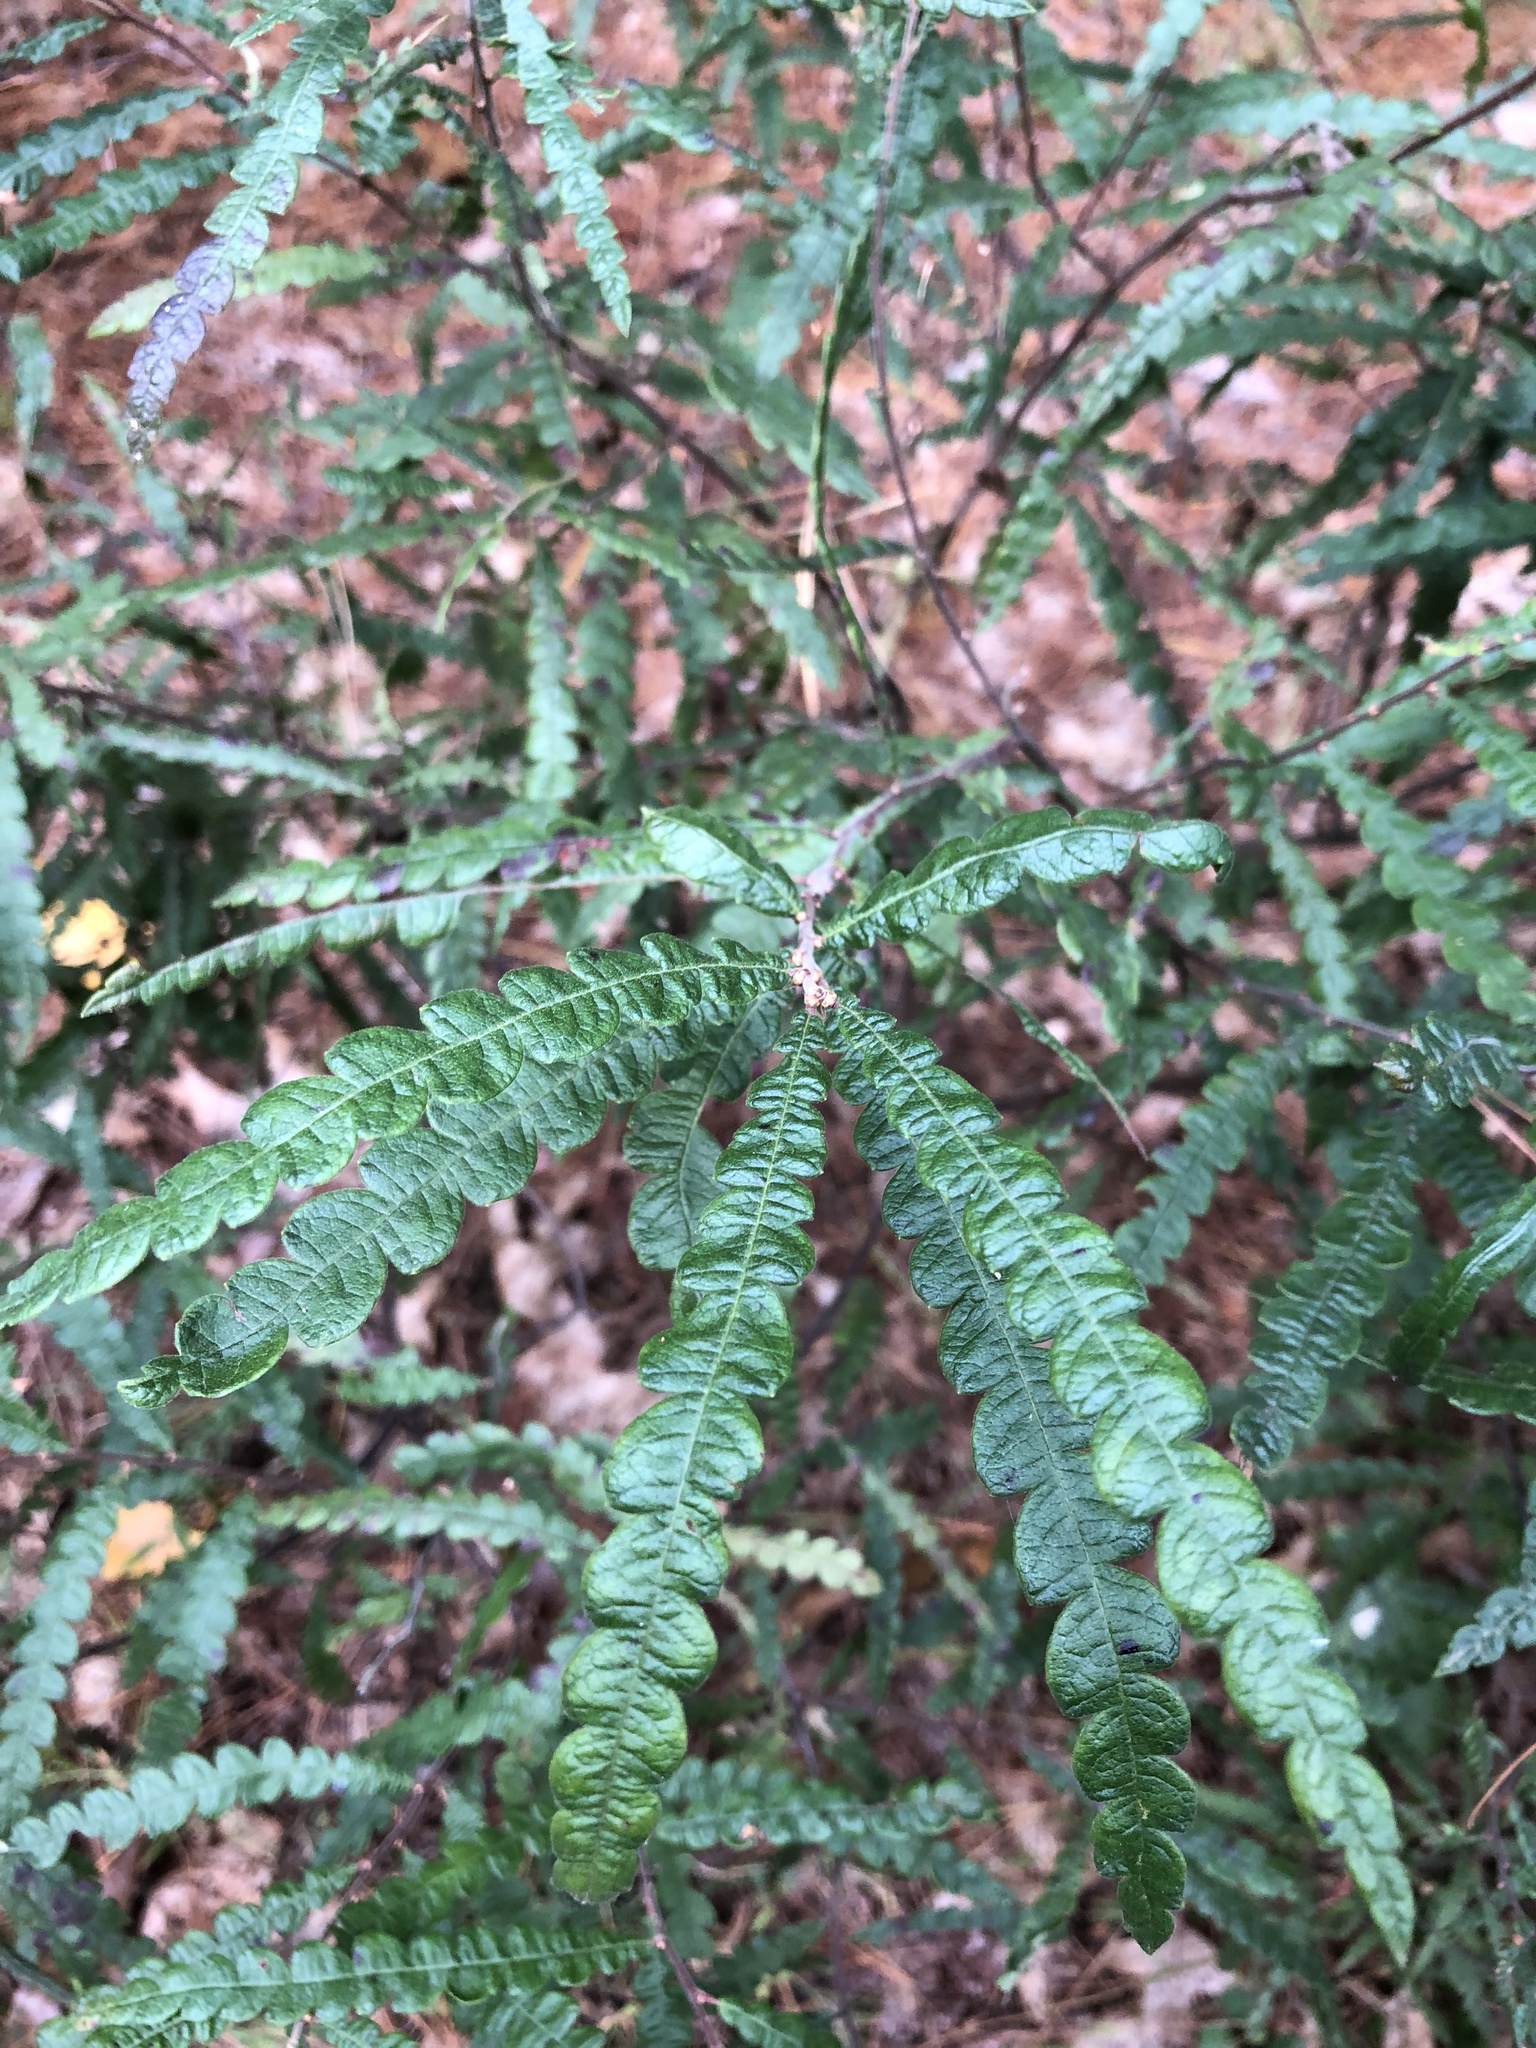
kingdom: Plantae
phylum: Tracheophyta
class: Magnoliopsida
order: Fagales
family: Myricaceae
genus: Comptonia
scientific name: Comptonia peregrina
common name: Sweet-fern
